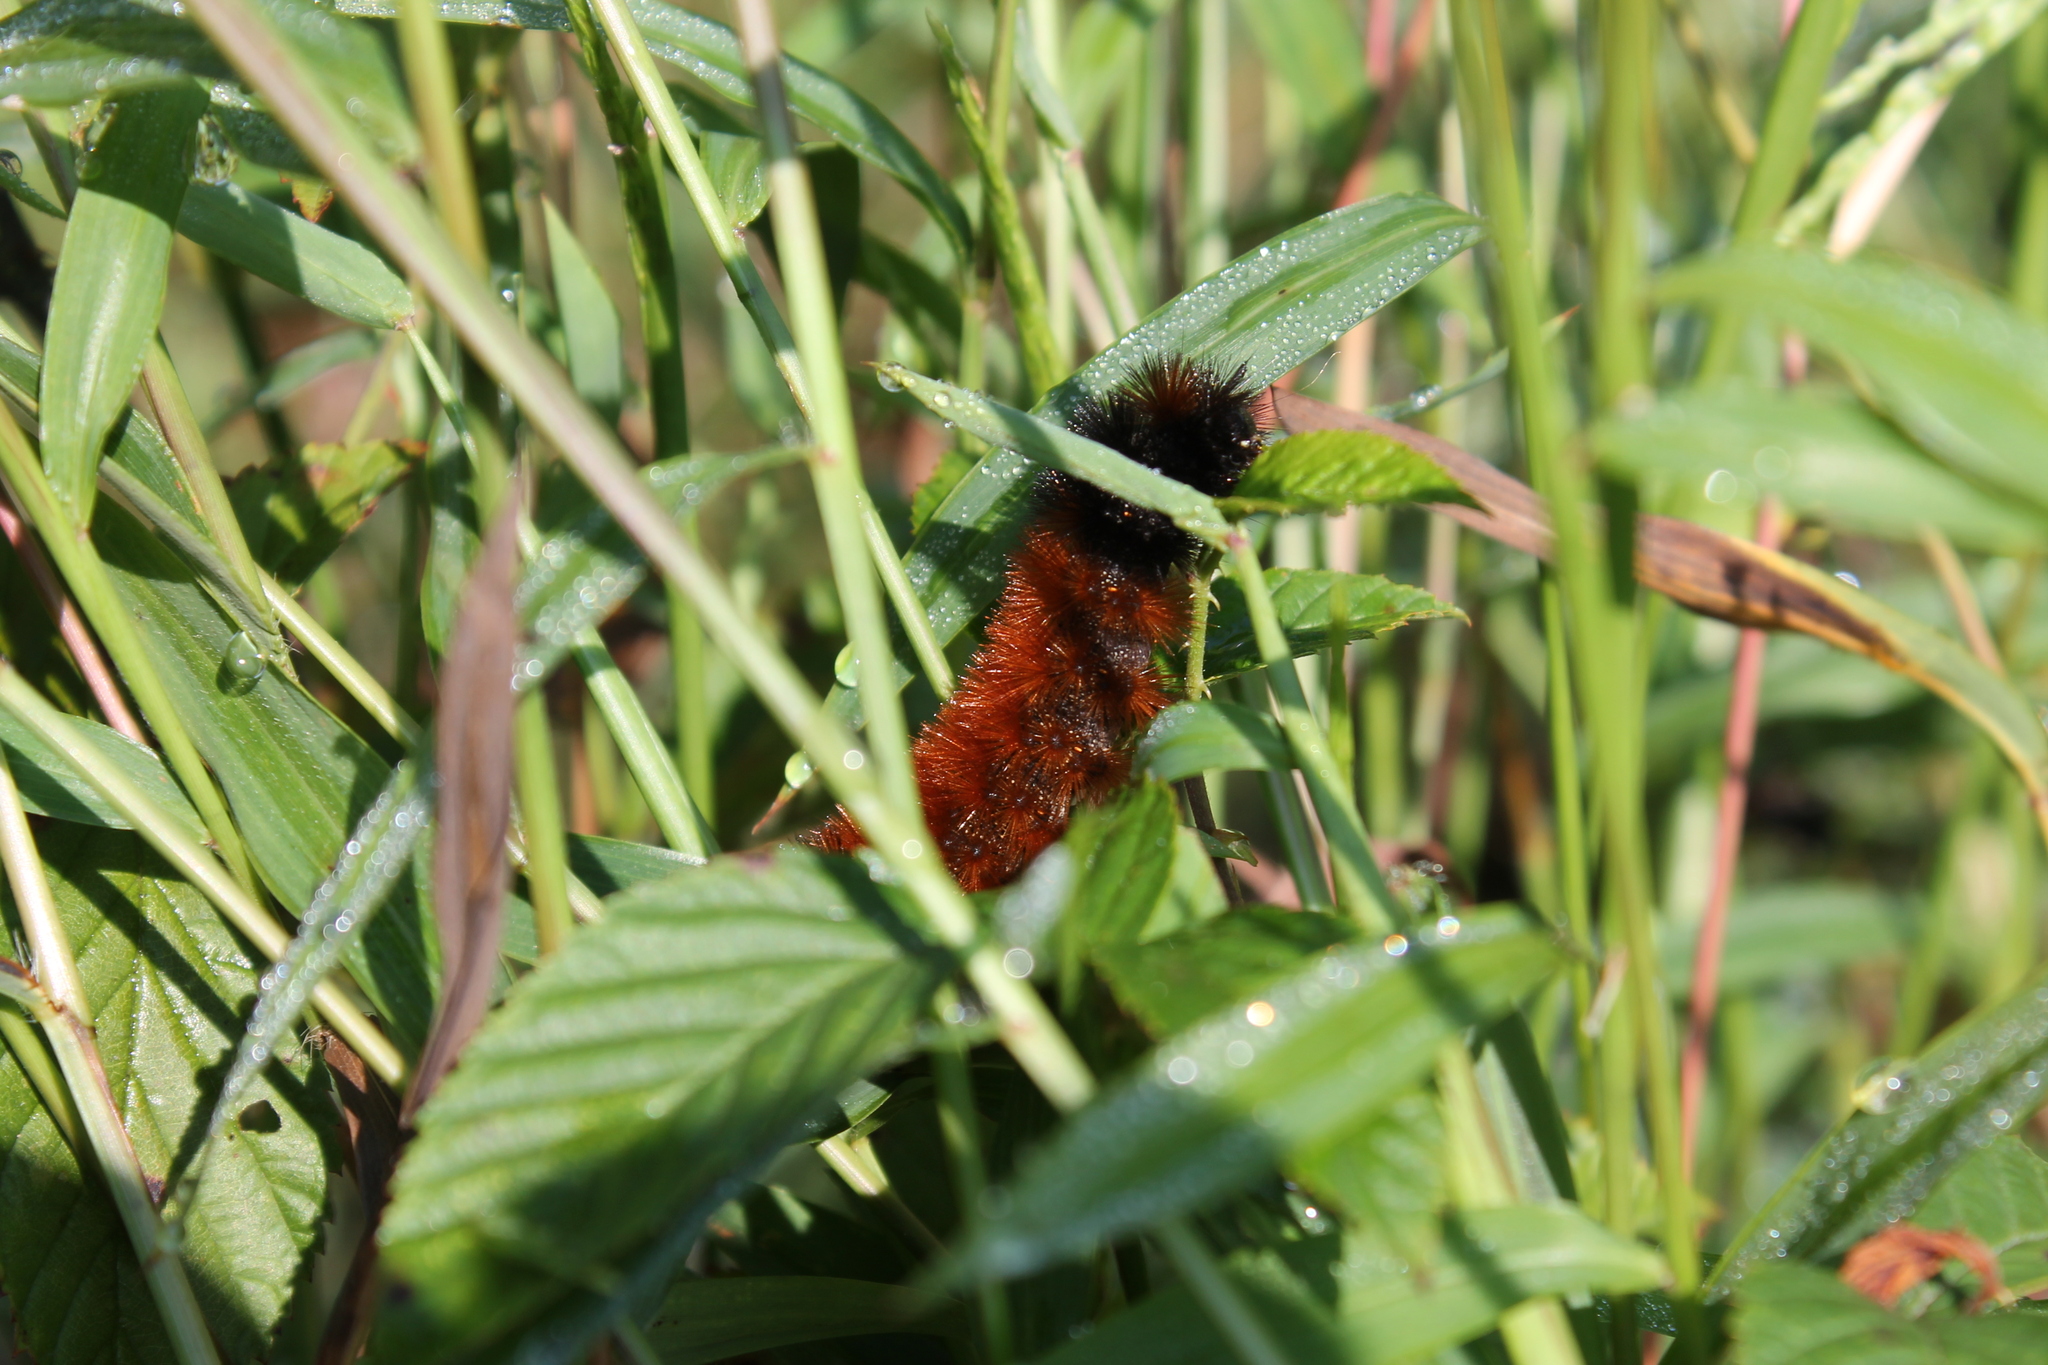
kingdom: Animalia
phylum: Arthropoda
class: Insecta
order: Lepidoptera
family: Erebidae
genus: Pyrrharctia
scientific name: Pyrrharctia isabella
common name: Isabella tiger moth
